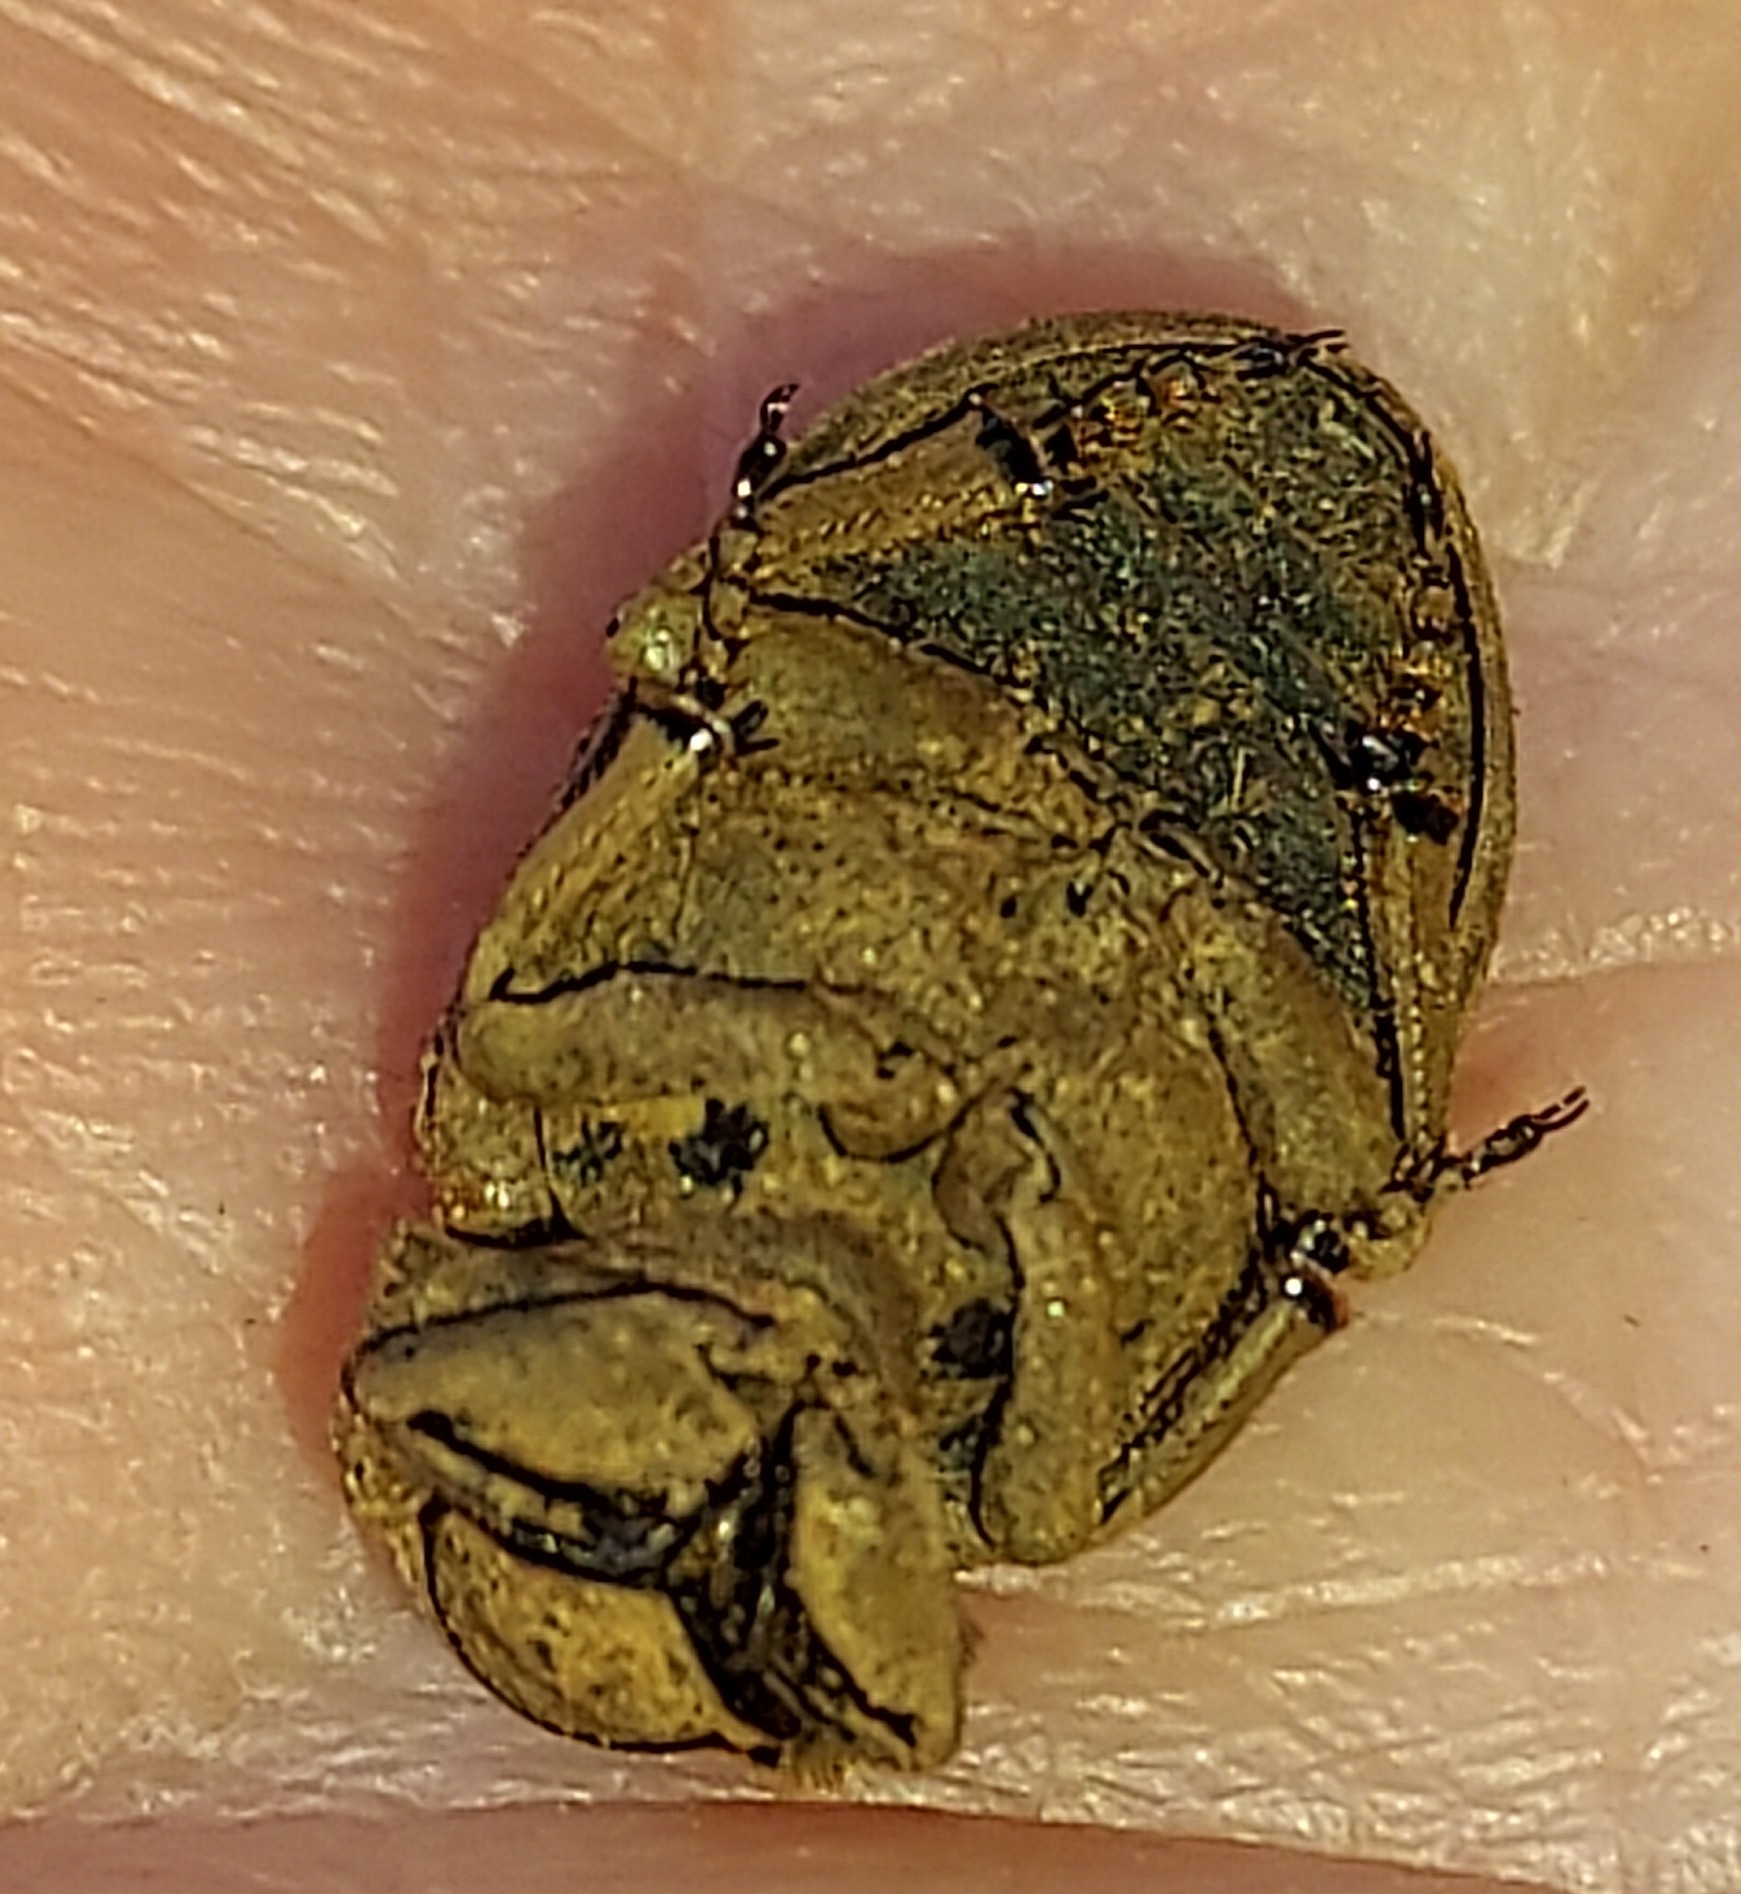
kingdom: Animalia
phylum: Arthropoda
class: Insecta
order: Coleoptera
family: Trogidae
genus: Omorgus
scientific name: Omorgus suberosus
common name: Hide beetle
